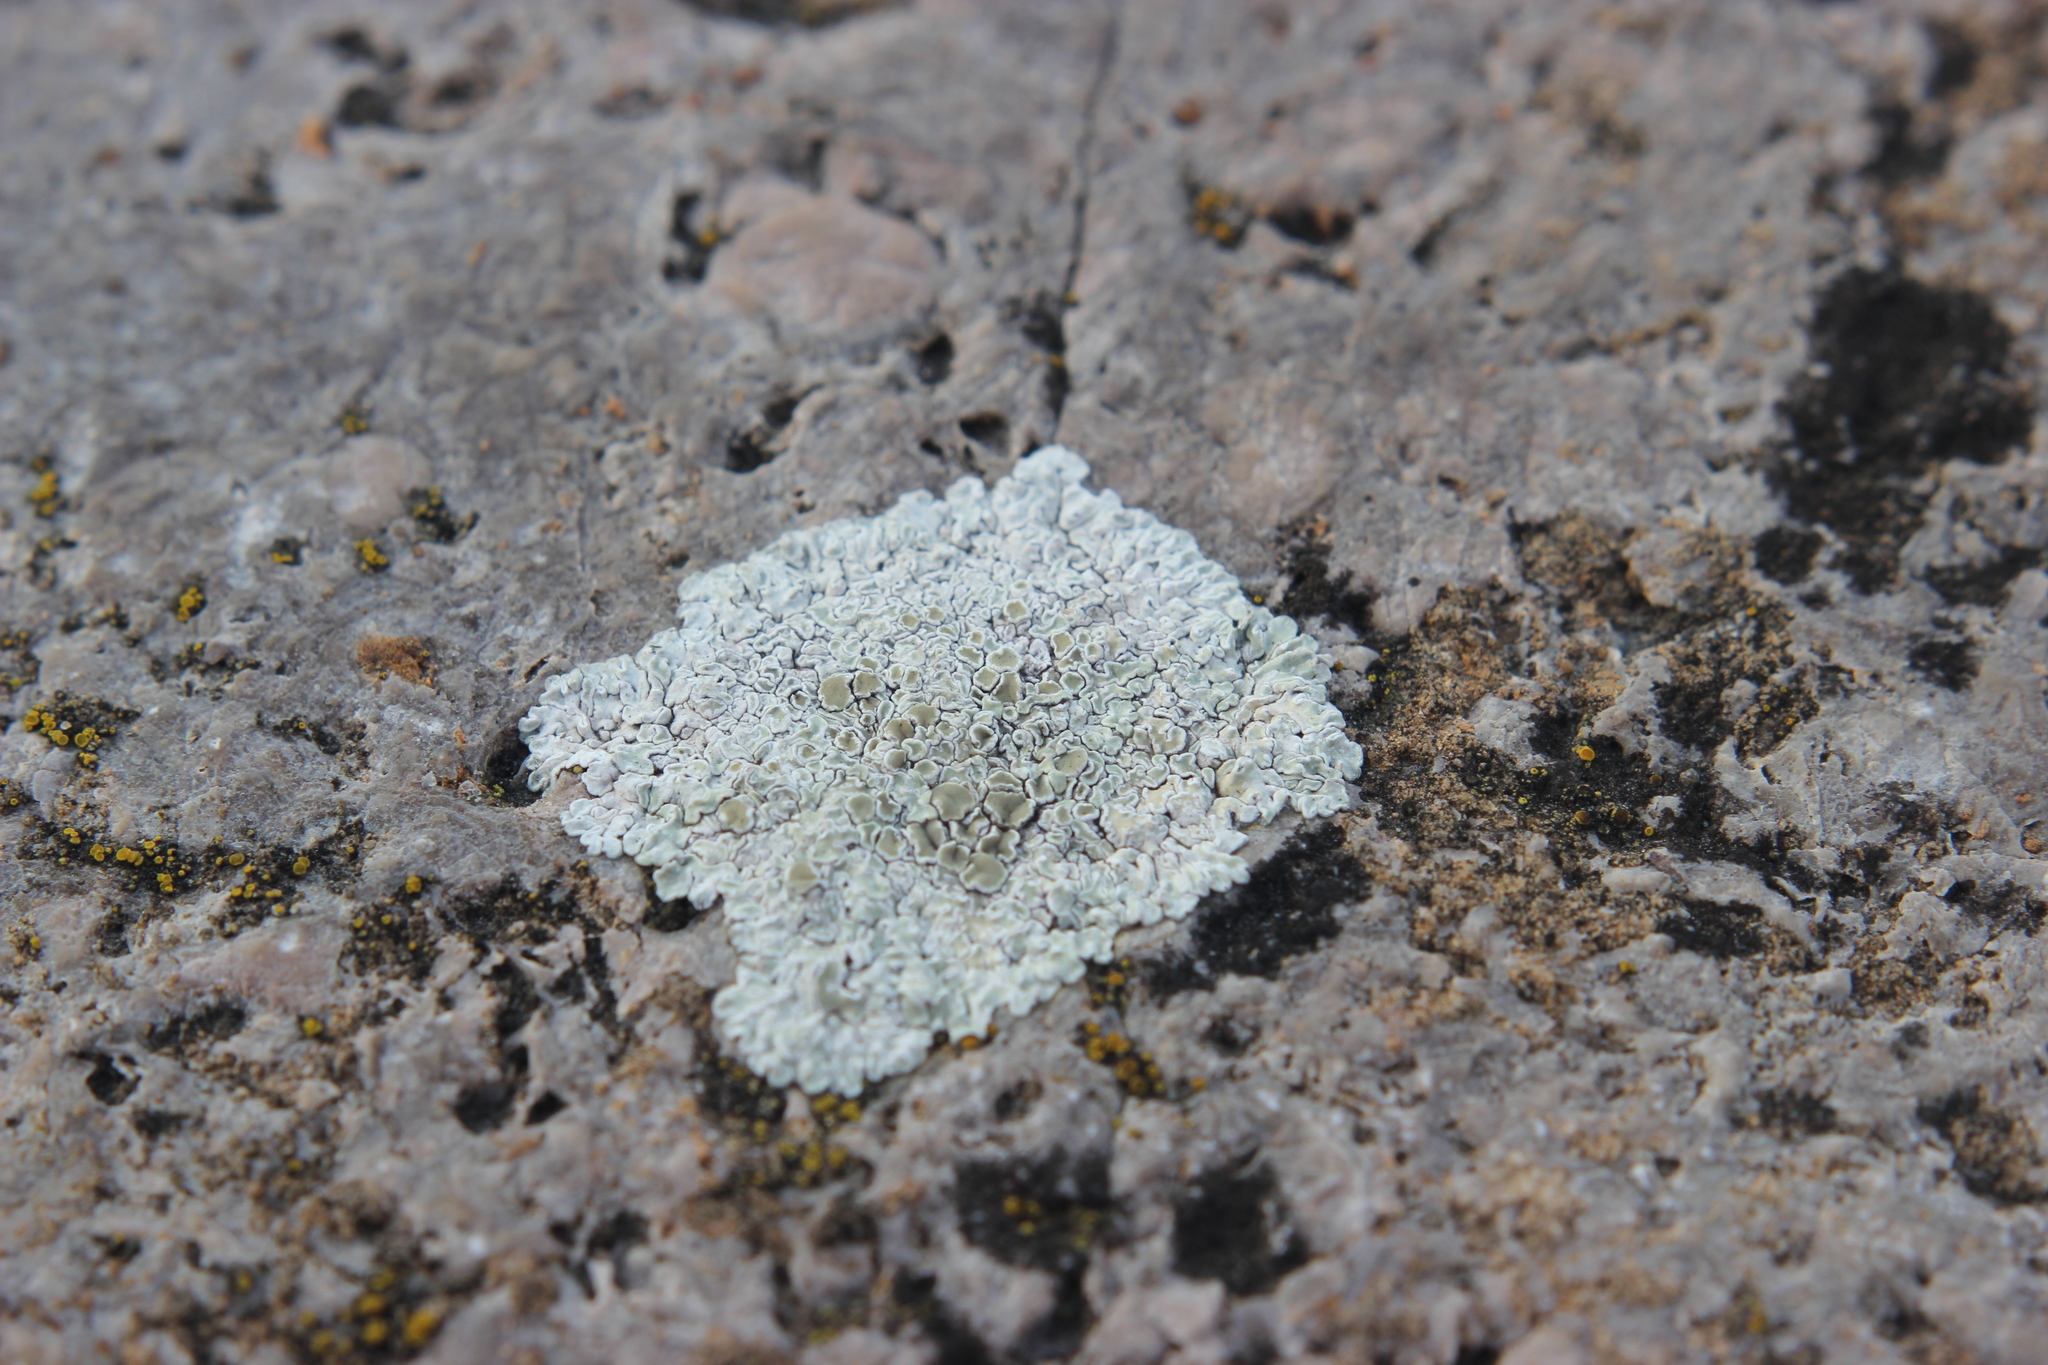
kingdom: Fungi
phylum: Ascomycota
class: Lecanoromycetes
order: Lecanorales
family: Lecanoraceae
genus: Protoparmeliopsis
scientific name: Protoparmeliopsis muralis
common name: Stonewall rim lichen
